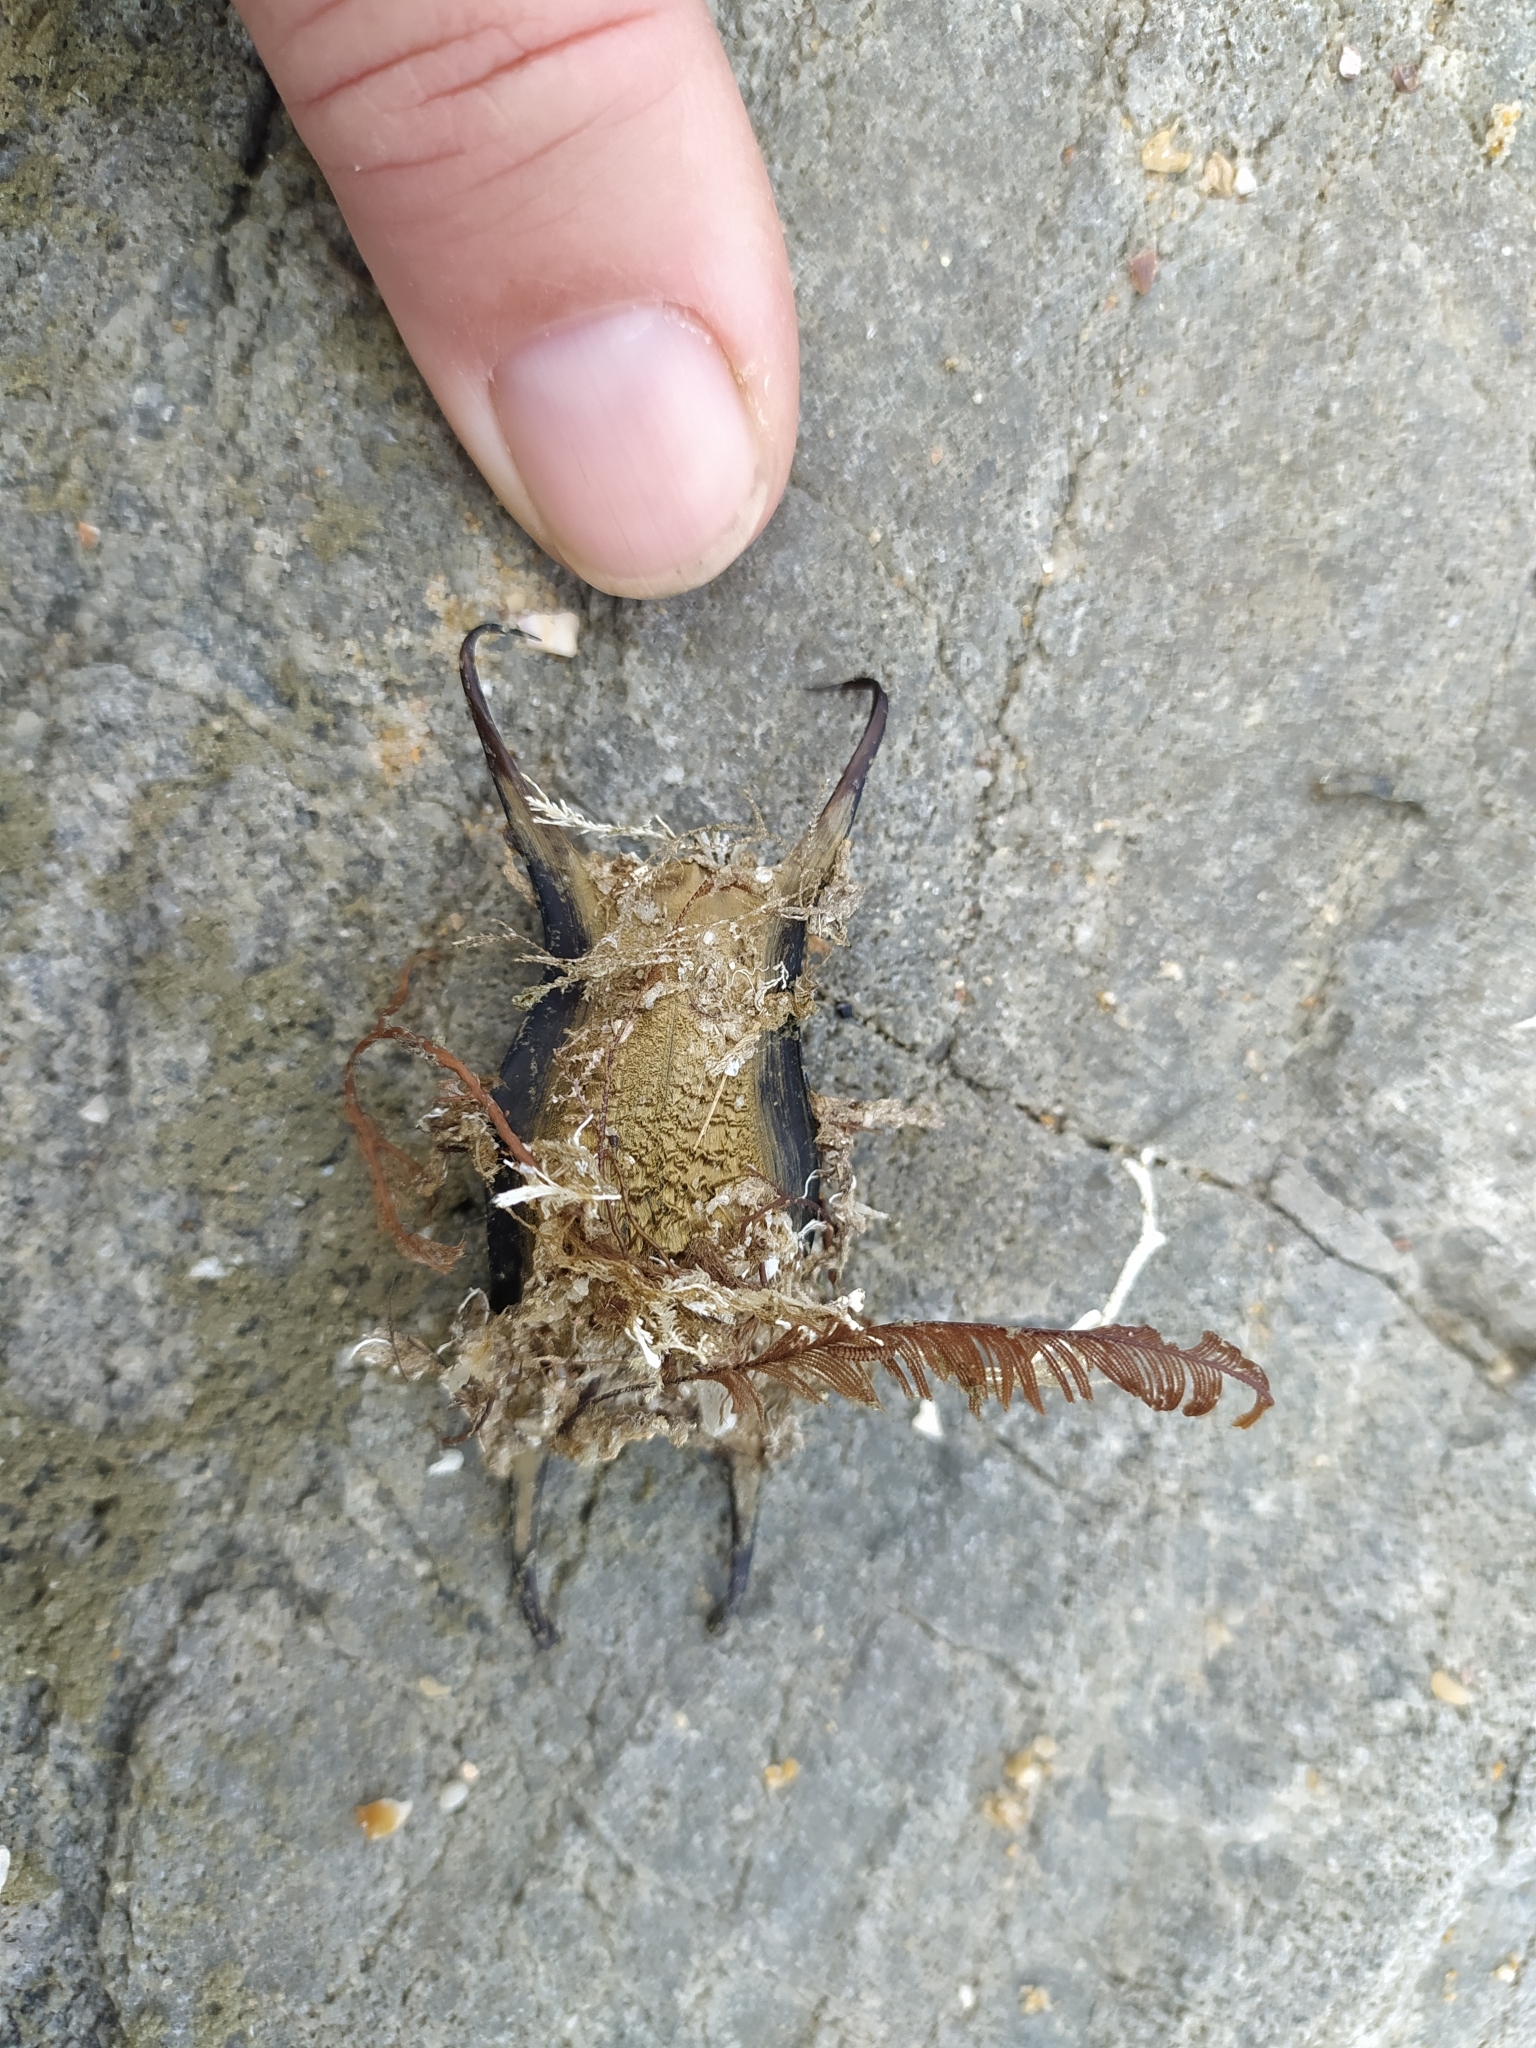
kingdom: Animalia
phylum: Chordata
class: Elasmobranchii
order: Rajiformes
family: Rajidae
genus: Raja
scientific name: Raja ocellifera
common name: Twineye skate
